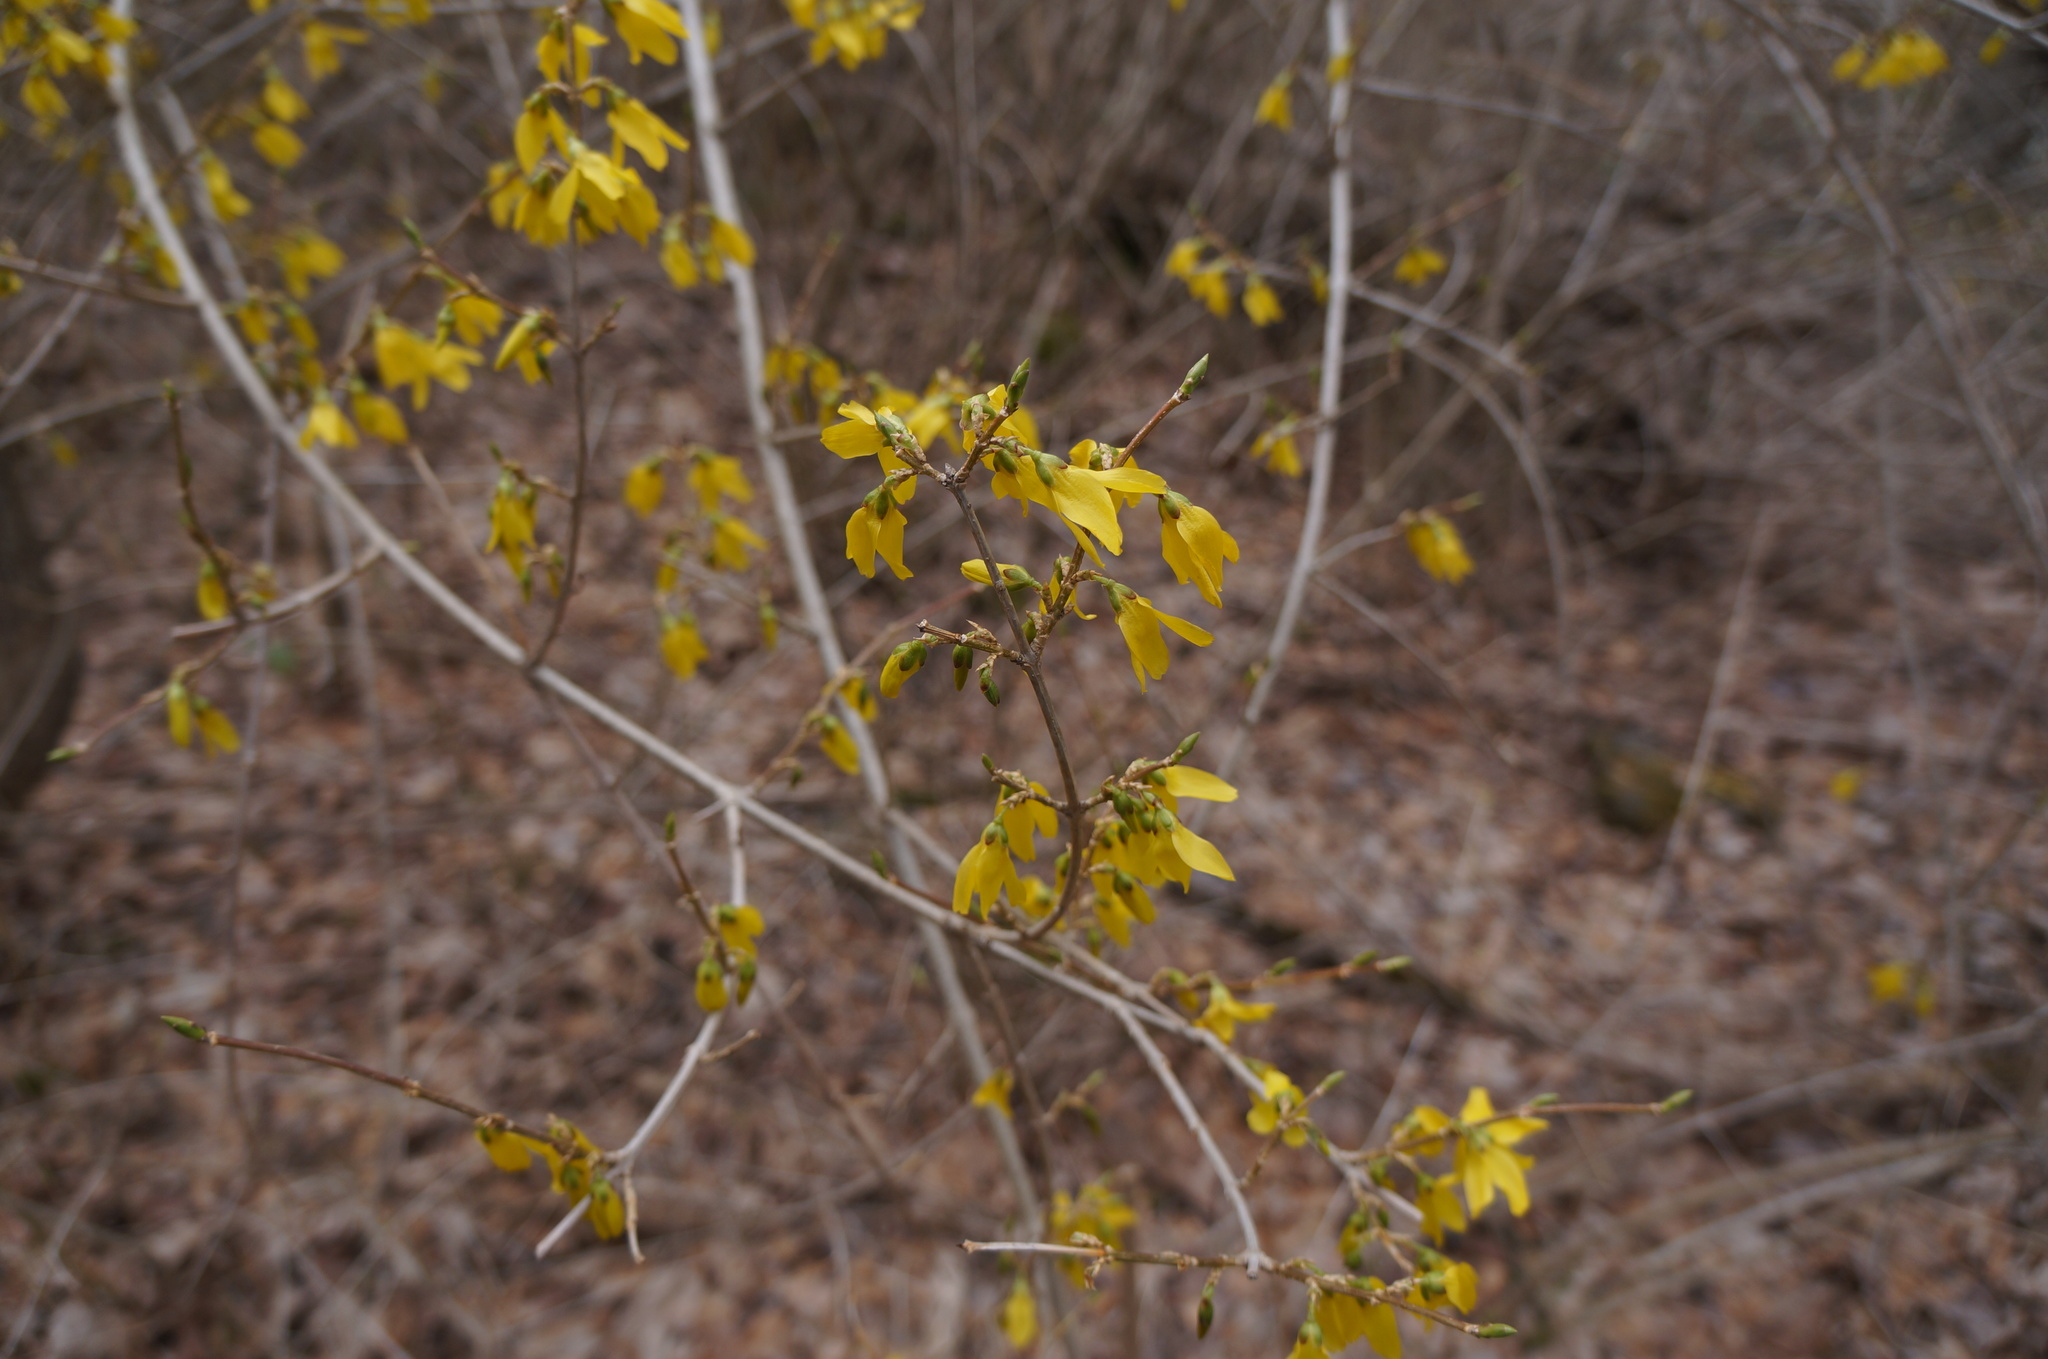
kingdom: Plantae
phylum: Tracheophyta
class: Magnoliopsida
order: Lamiales
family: Oleaceae
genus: Forsythia
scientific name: Forsythia intermedia
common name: Forsythia
